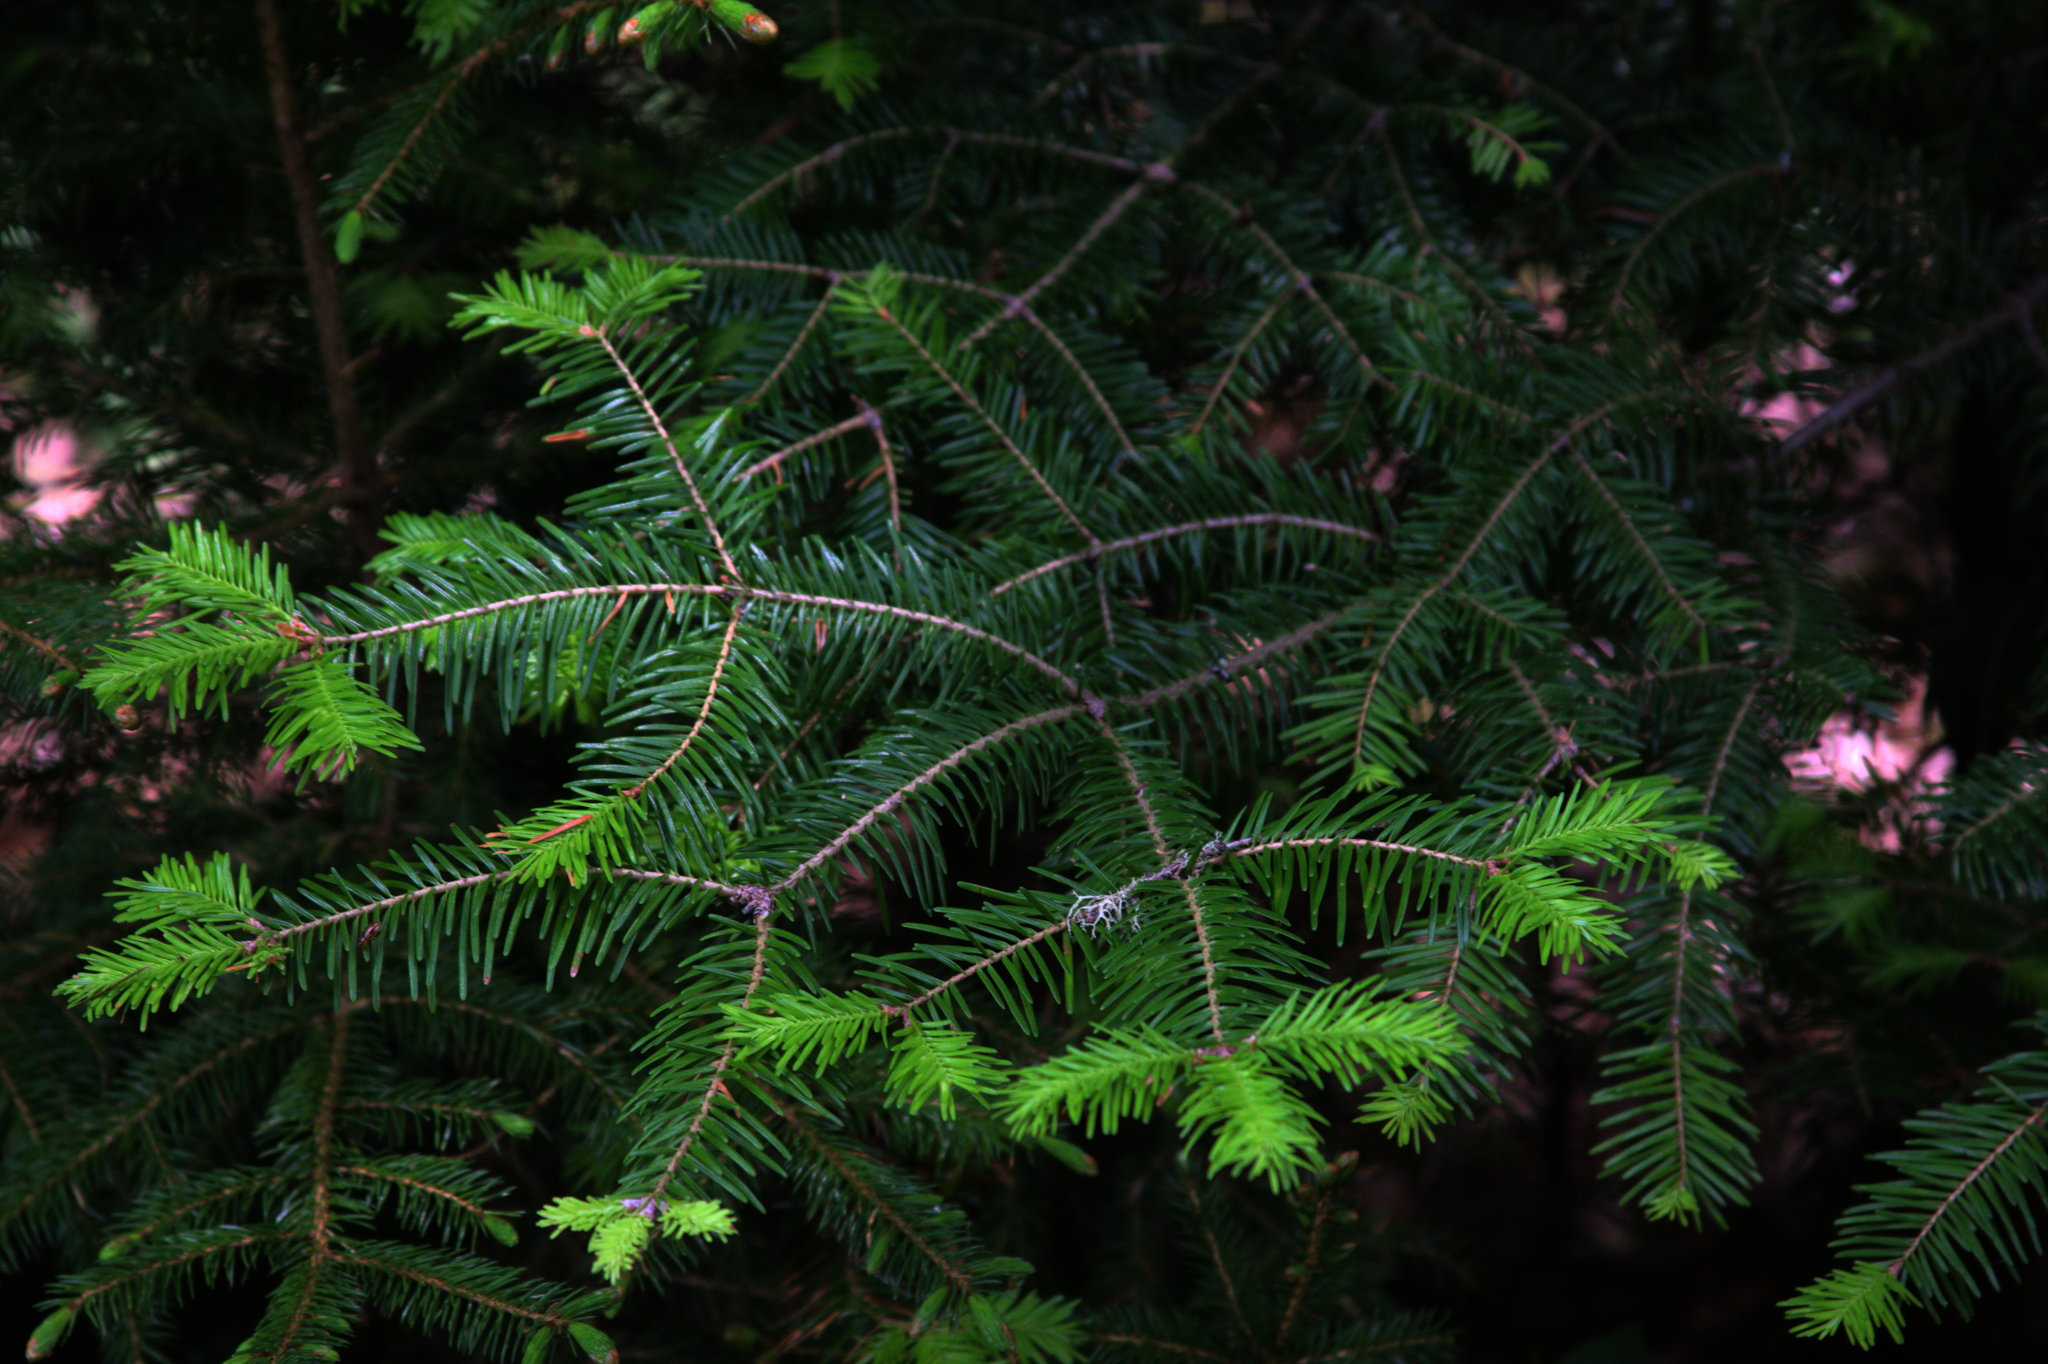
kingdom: Plantae
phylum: Tracheophyta
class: Pinopsida
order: Pinales
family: Pinaceae
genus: Abies
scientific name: Abies balsamea
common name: Balsam fir
